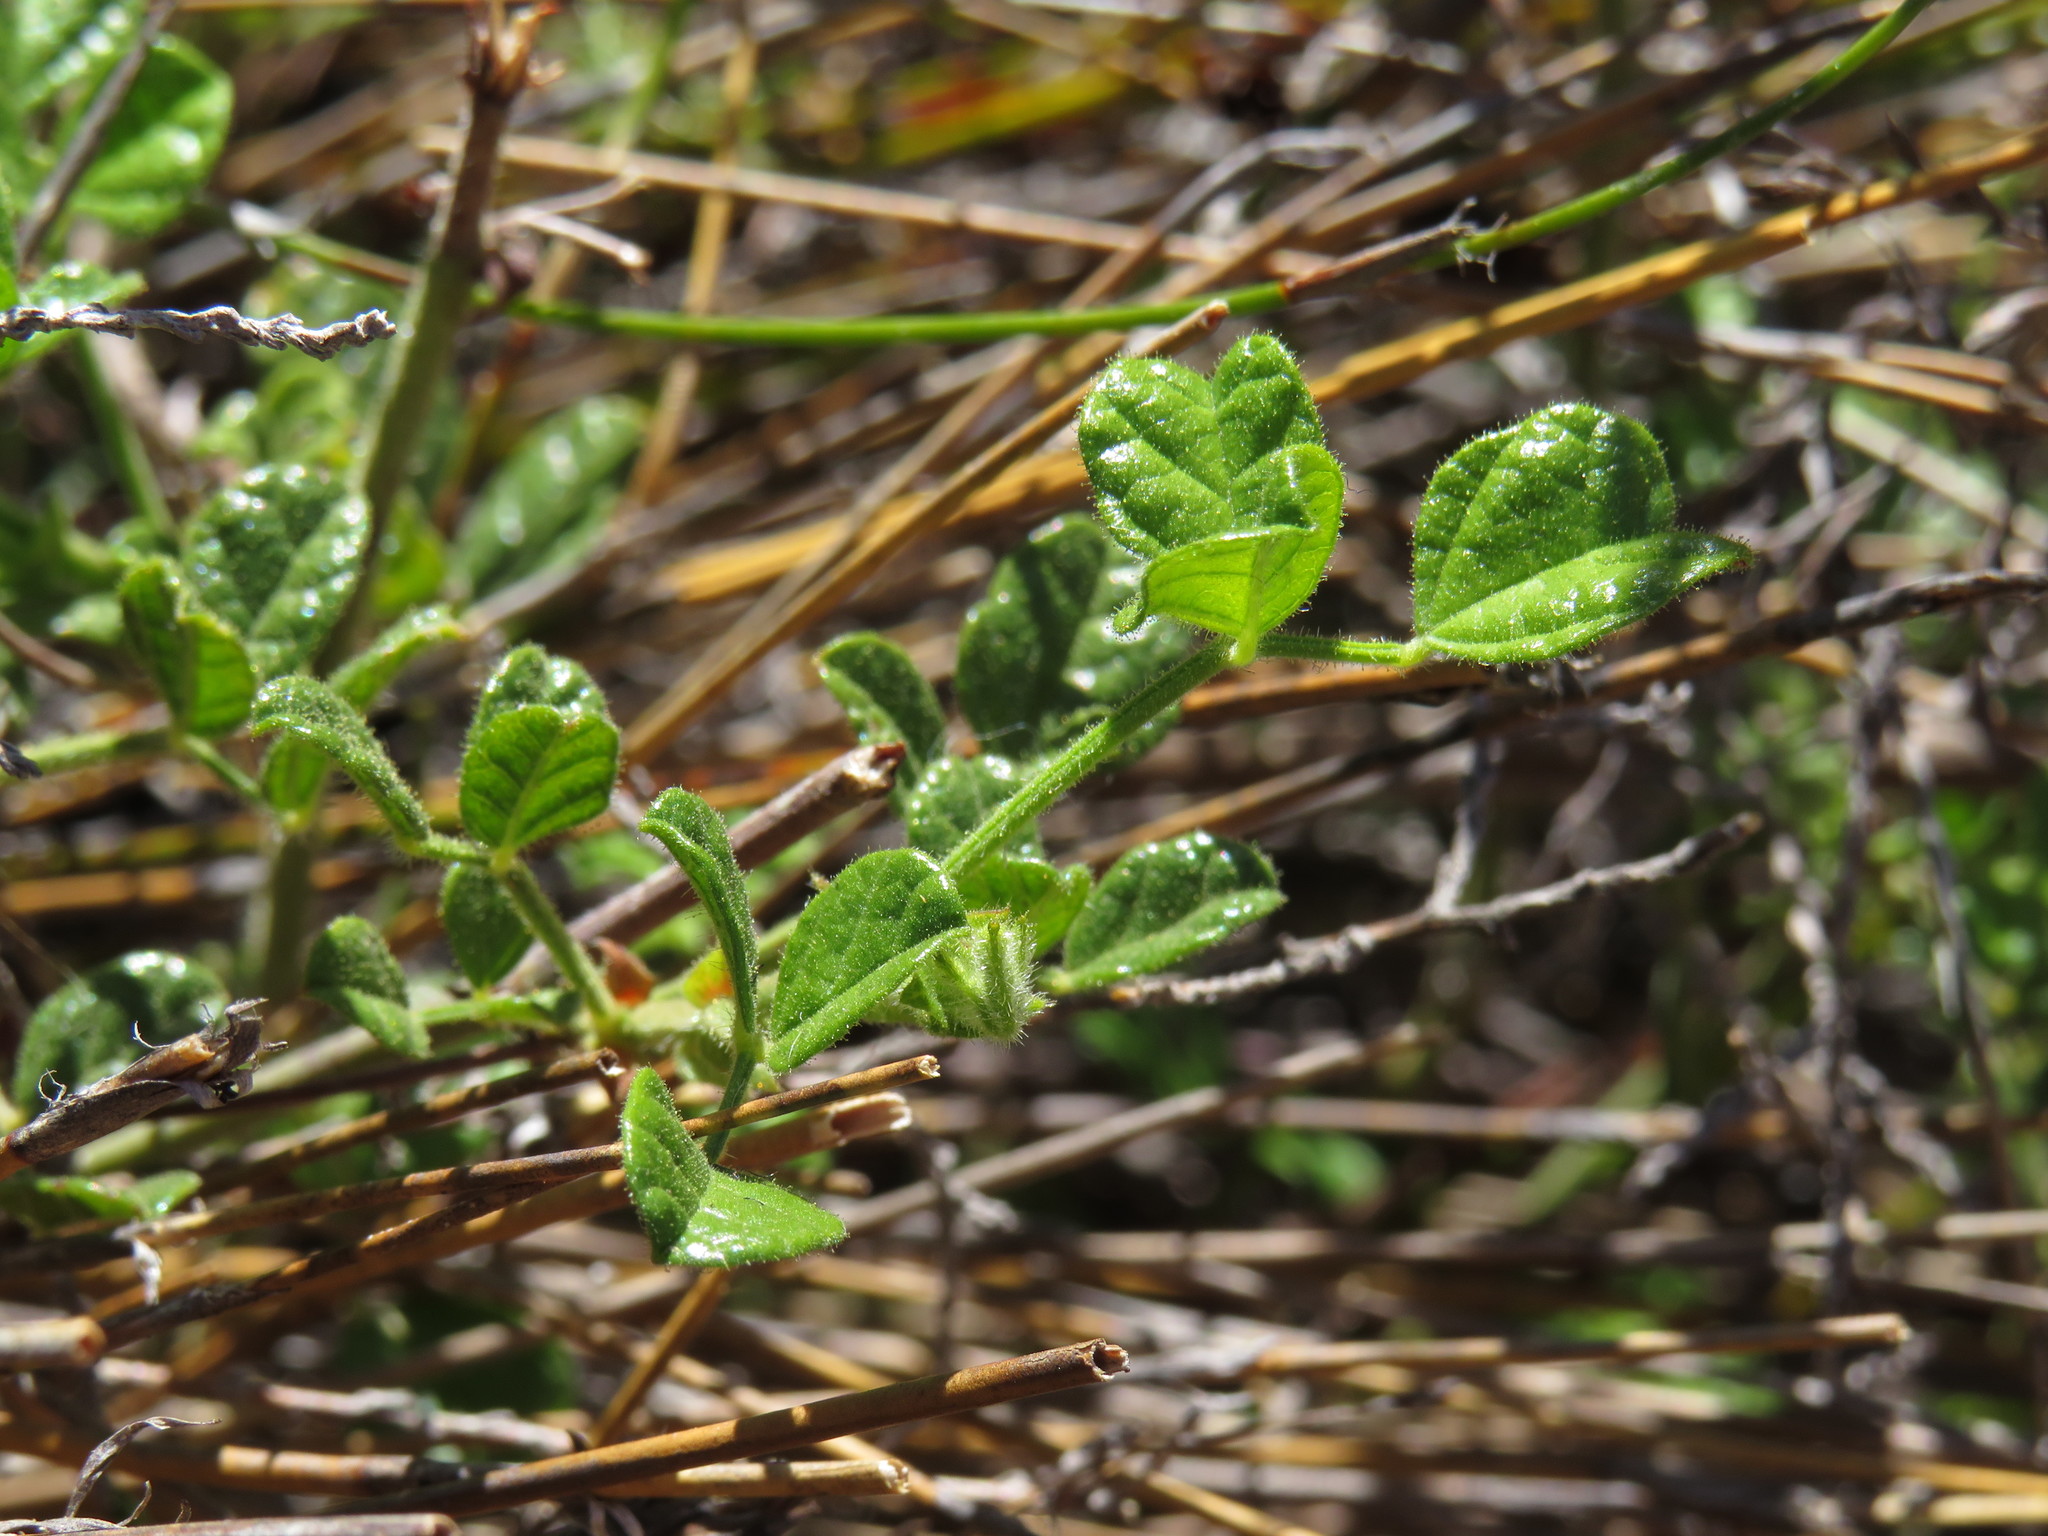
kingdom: Plantae
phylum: Tracheophyta
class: Magnoliopsida
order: Fabales
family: Fabaceae
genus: Bolusafra
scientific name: Bolusafra bituminosa
